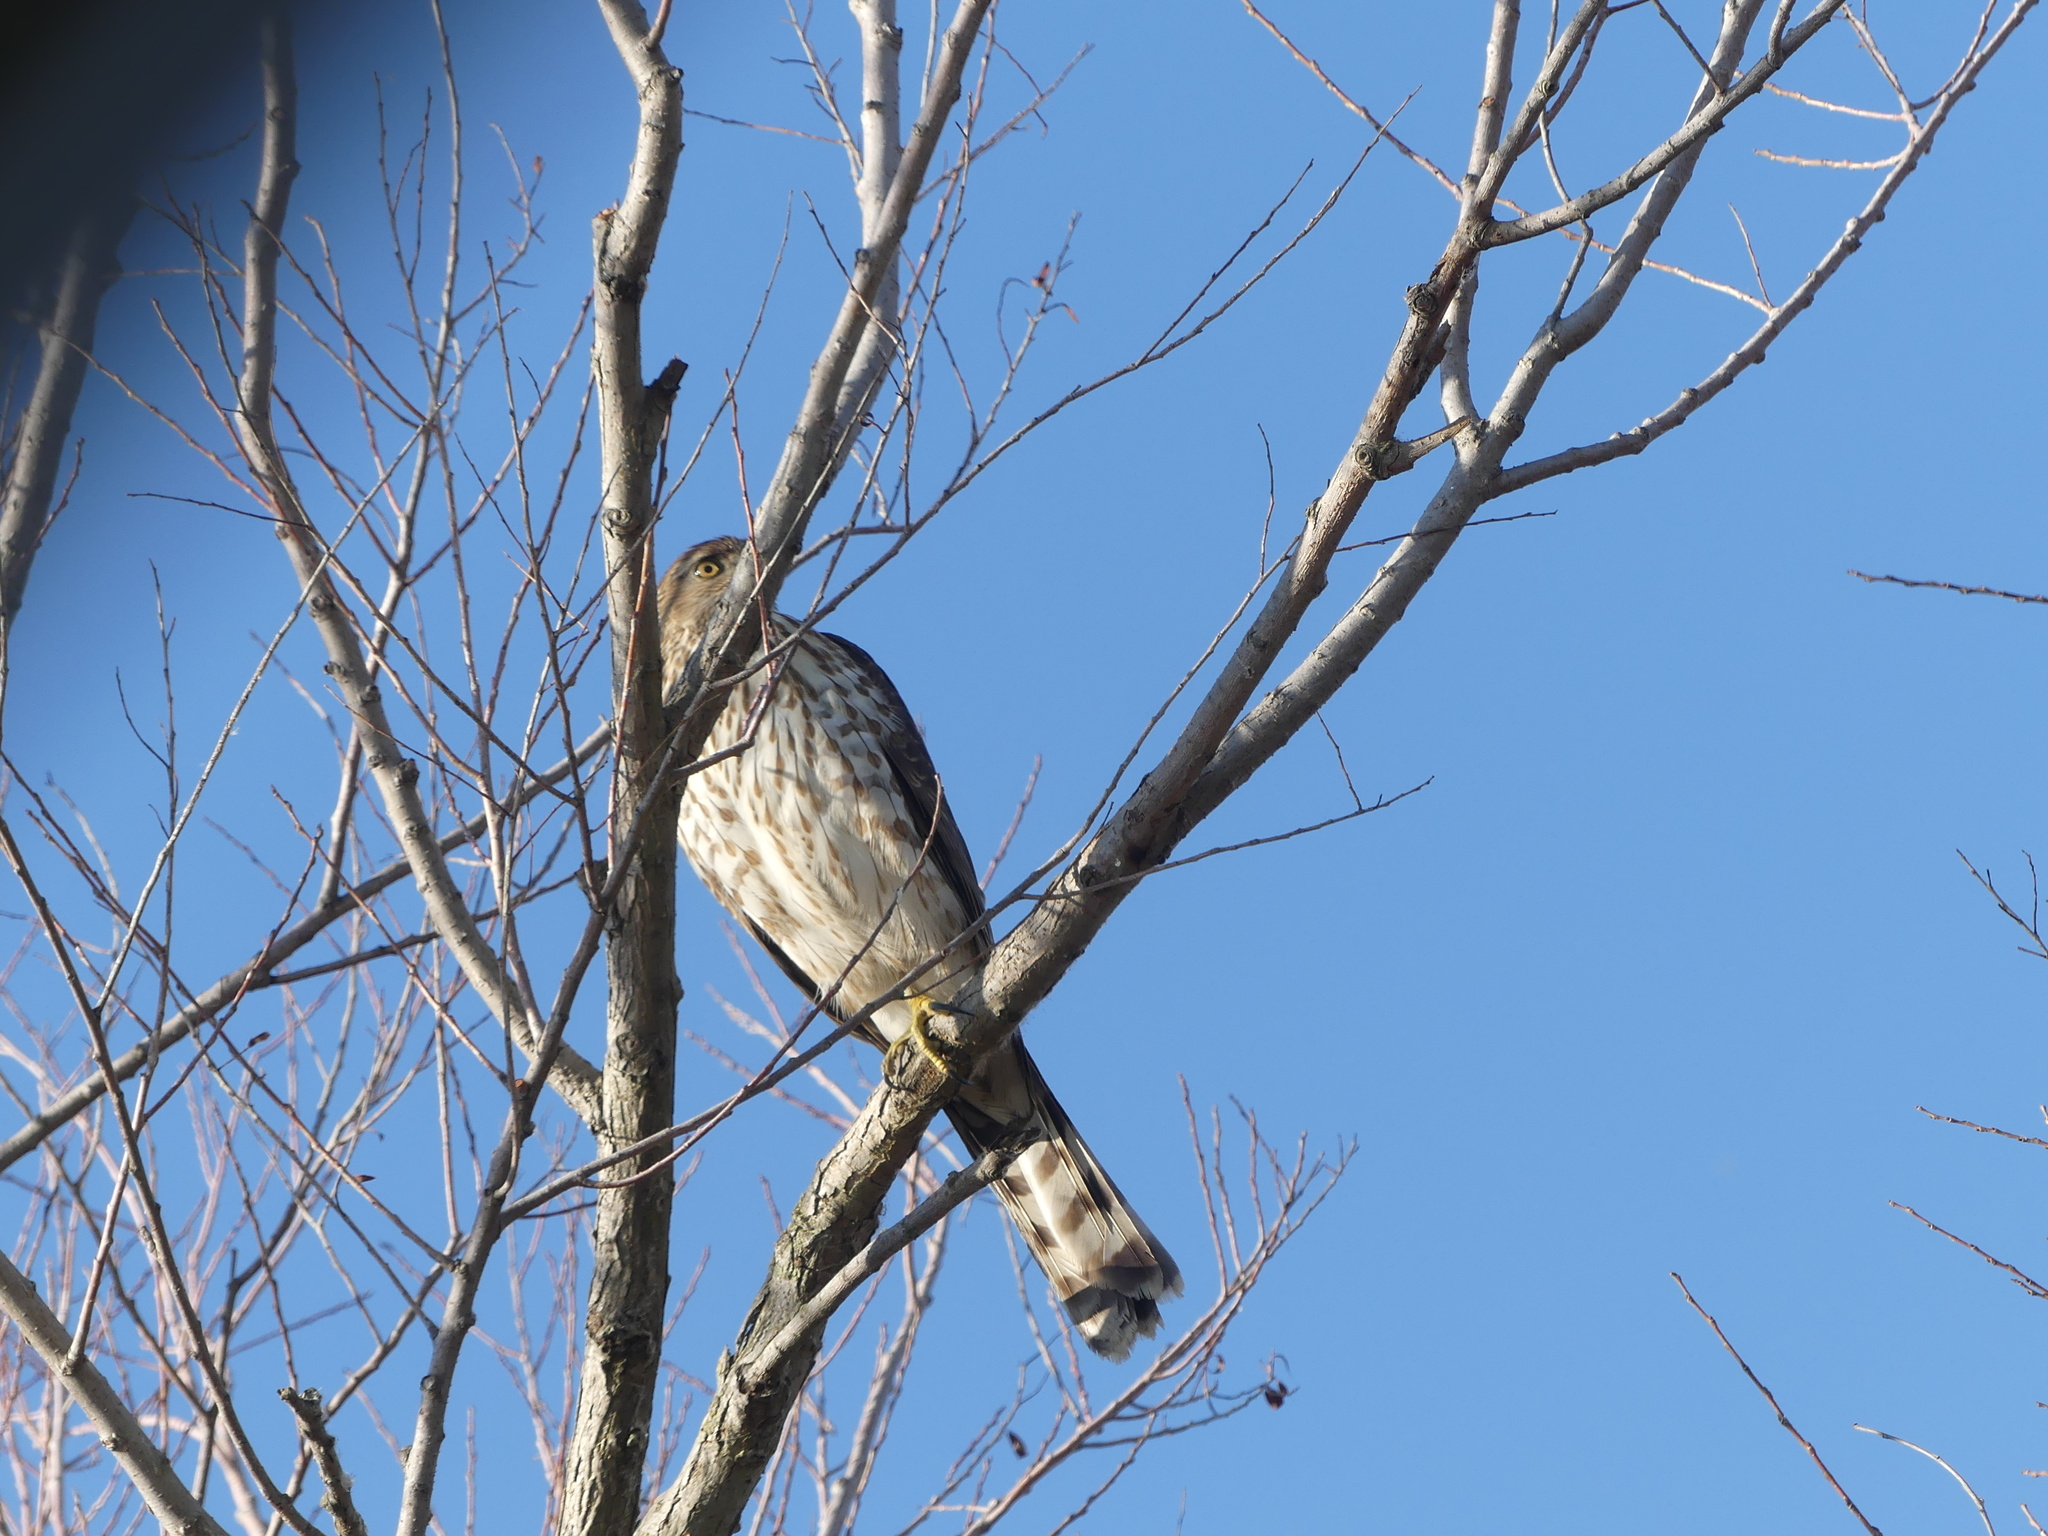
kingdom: Animalia
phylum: Chordata
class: Aves
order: Accipitriformes
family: Accipitridae
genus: Accipiter
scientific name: Accipiter cooperii
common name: Cooper's hawk
